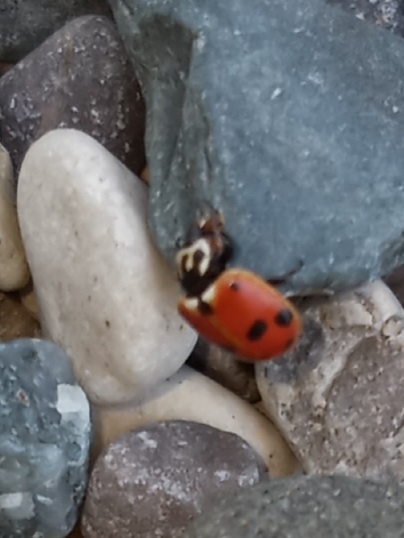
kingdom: Animalia
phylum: Arthropoda
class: Insecta
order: Coleoptera
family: Coccinellidae
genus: Hippodamia
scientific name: Hippodamia variegata
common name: Ladybird beetle
